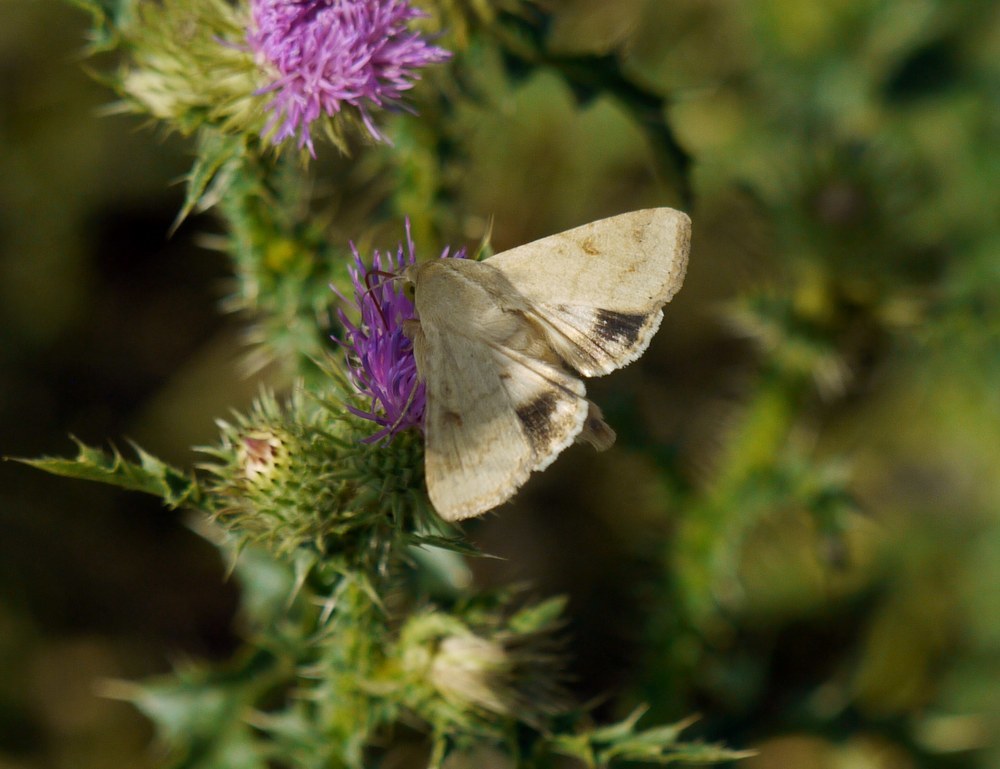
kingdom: Animalia
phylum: Arthropoda
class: Insecta
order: Lepidoptera
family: Noctuidae
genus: Helicoverpa
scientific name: Helicoverpa armigera
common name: Cotton bollworm
